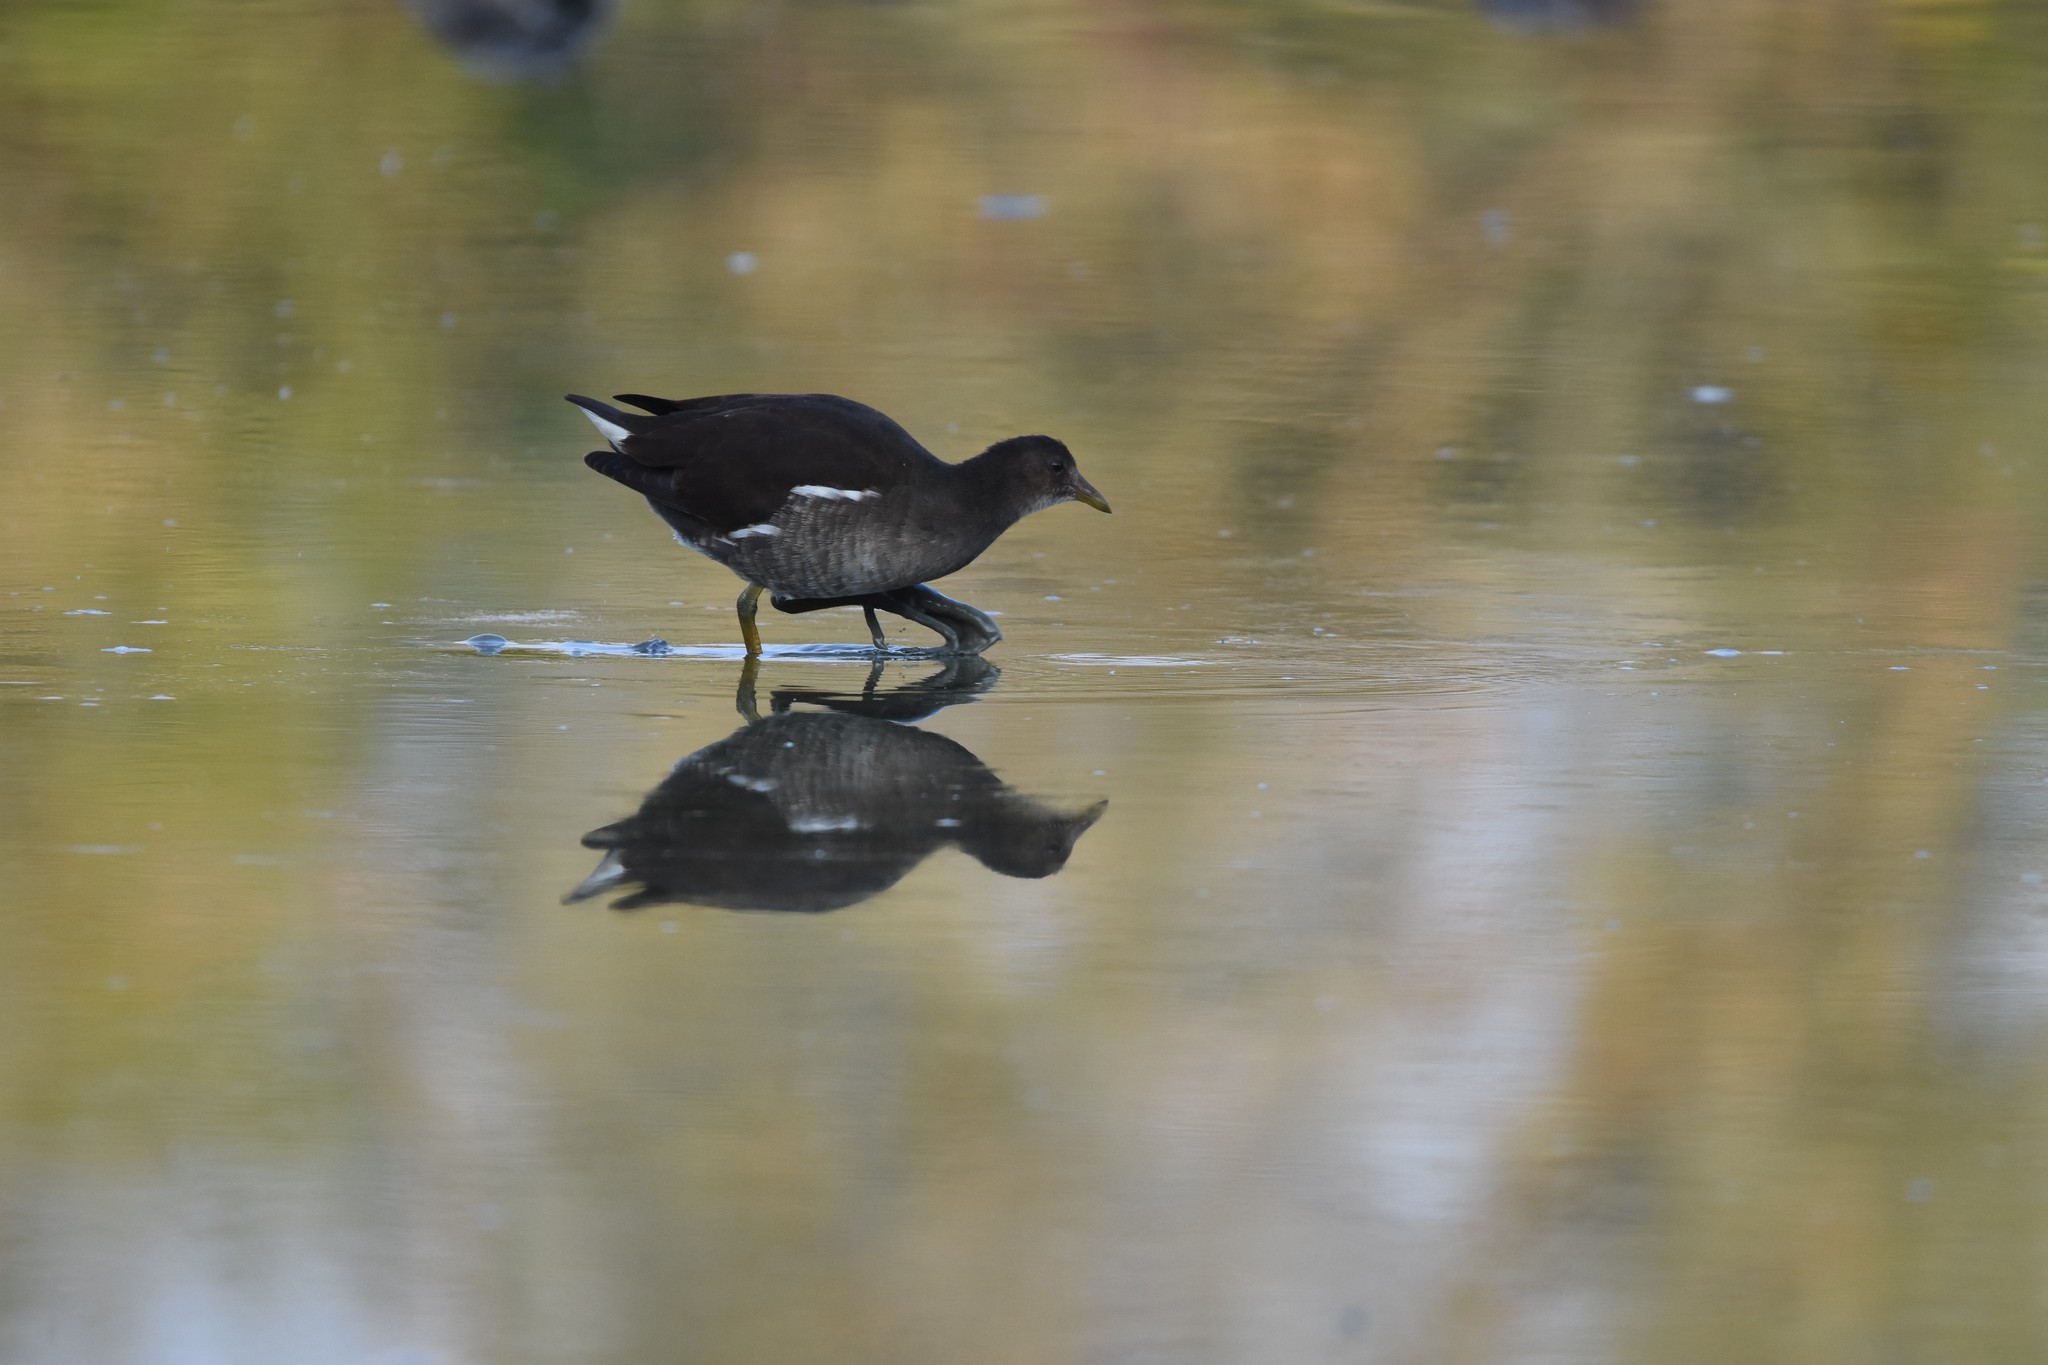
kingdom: Animalia
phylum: Chordata
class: Aves
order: Gruiformes
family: Rallidae
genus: Gallinula
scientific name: Gallinula chloropus
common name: Common moorhen
